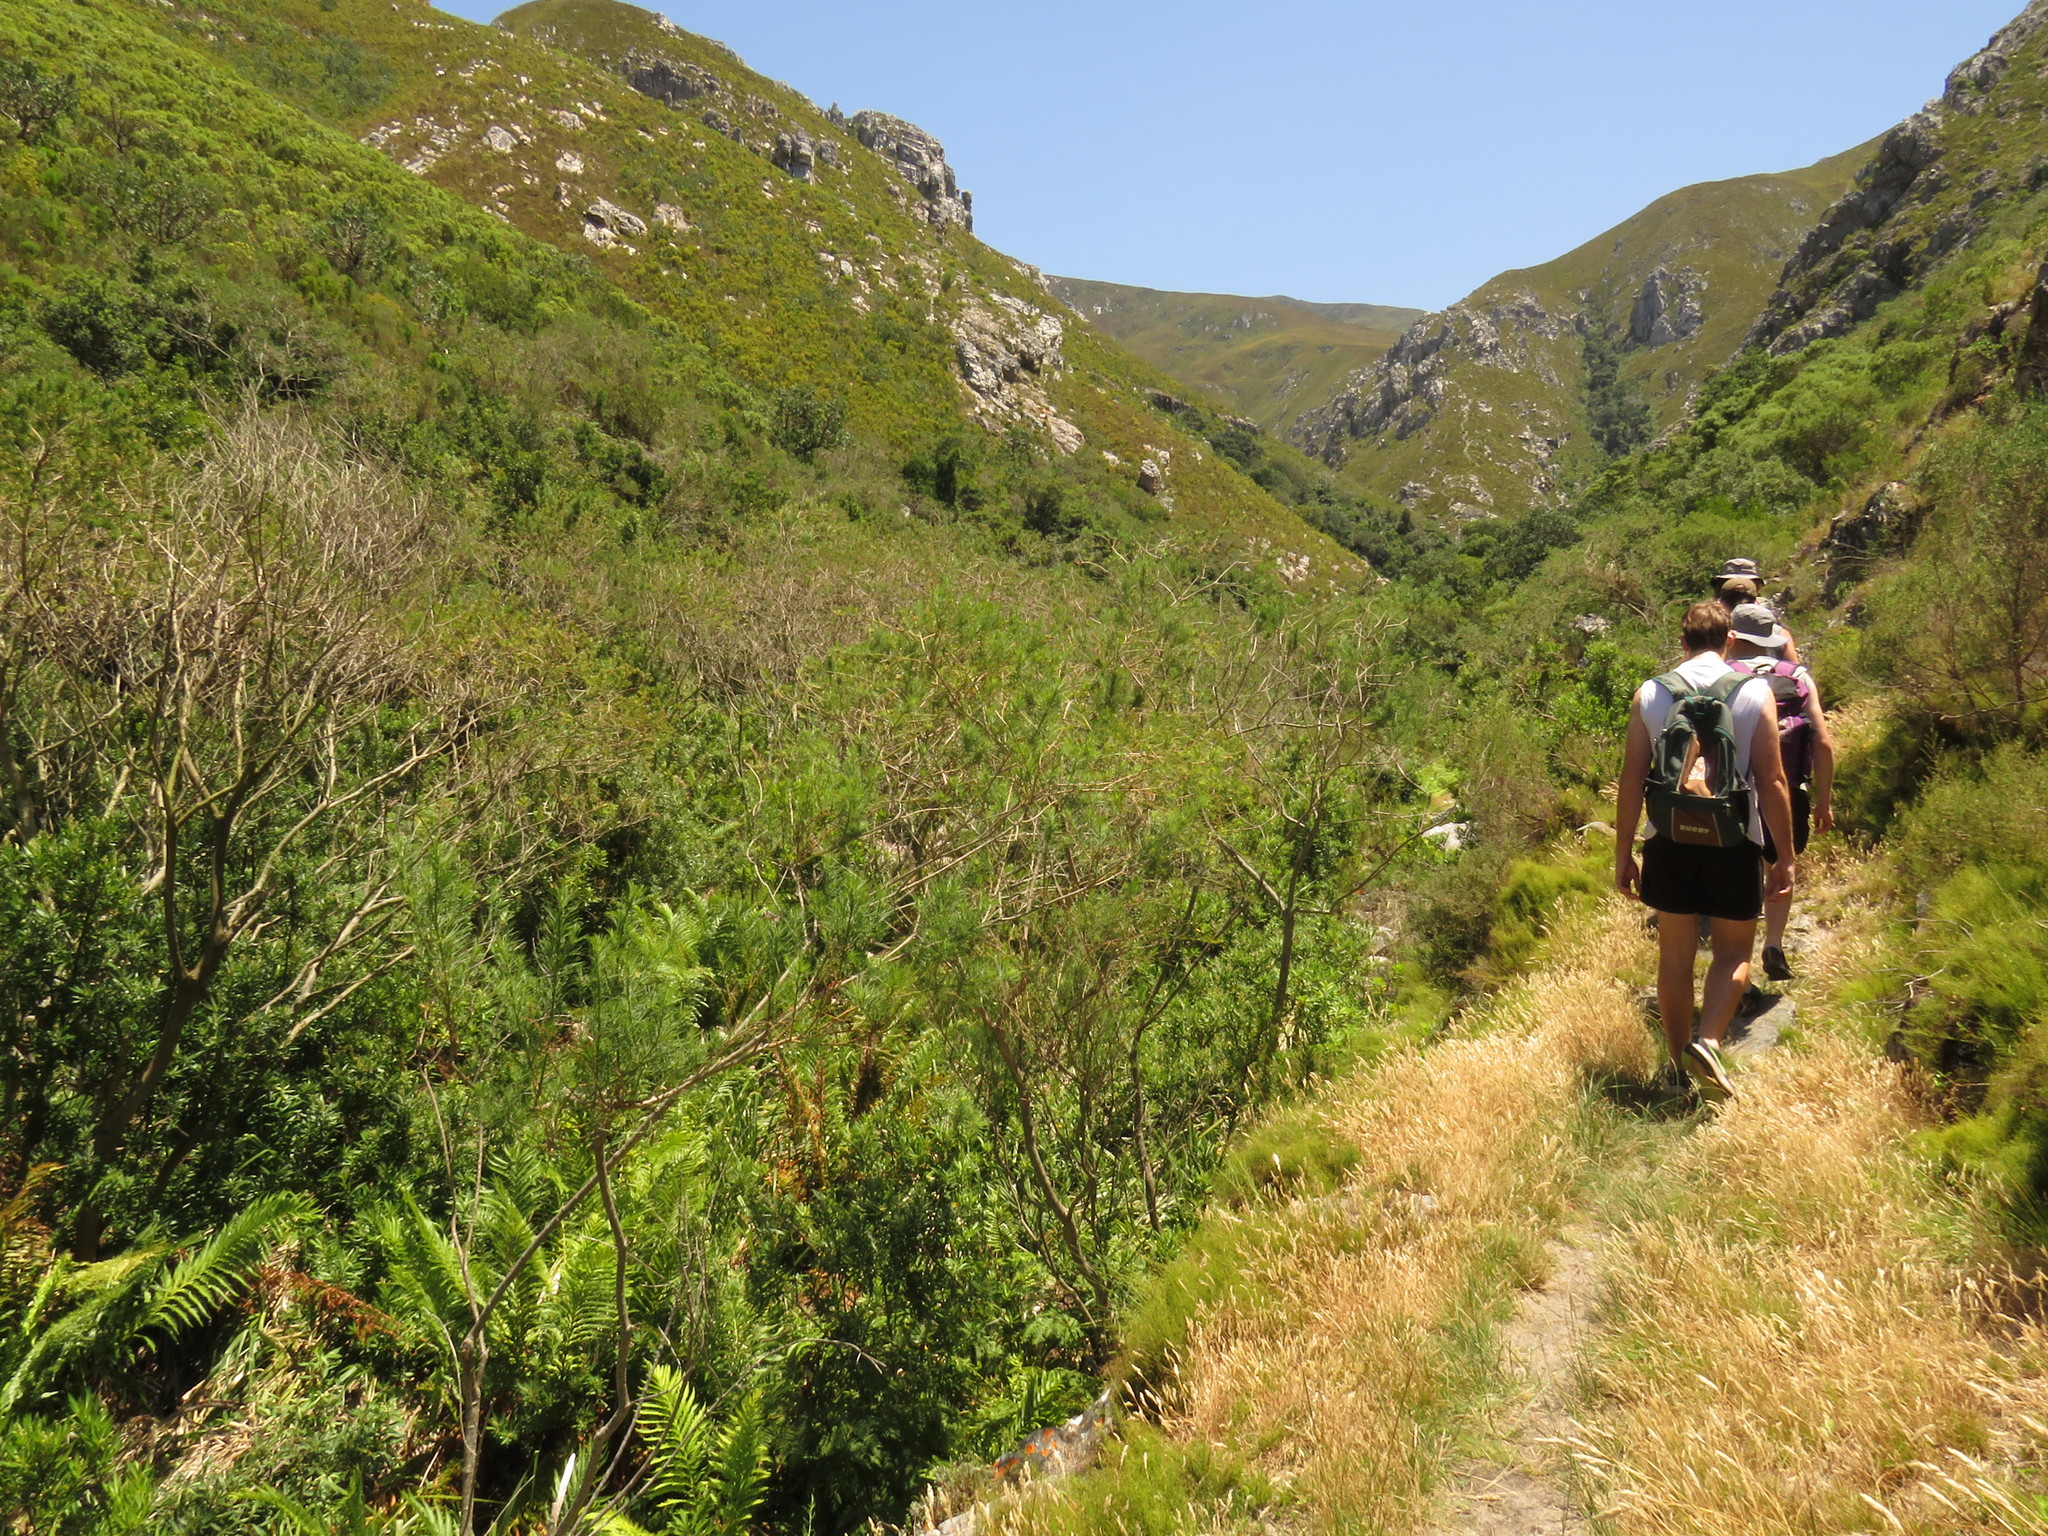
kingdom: Plantae
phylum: Tracheophyta
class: Polypodiopsida
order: Osmundales
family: Osmundaceae
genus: Todea
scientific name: Todea barbara
